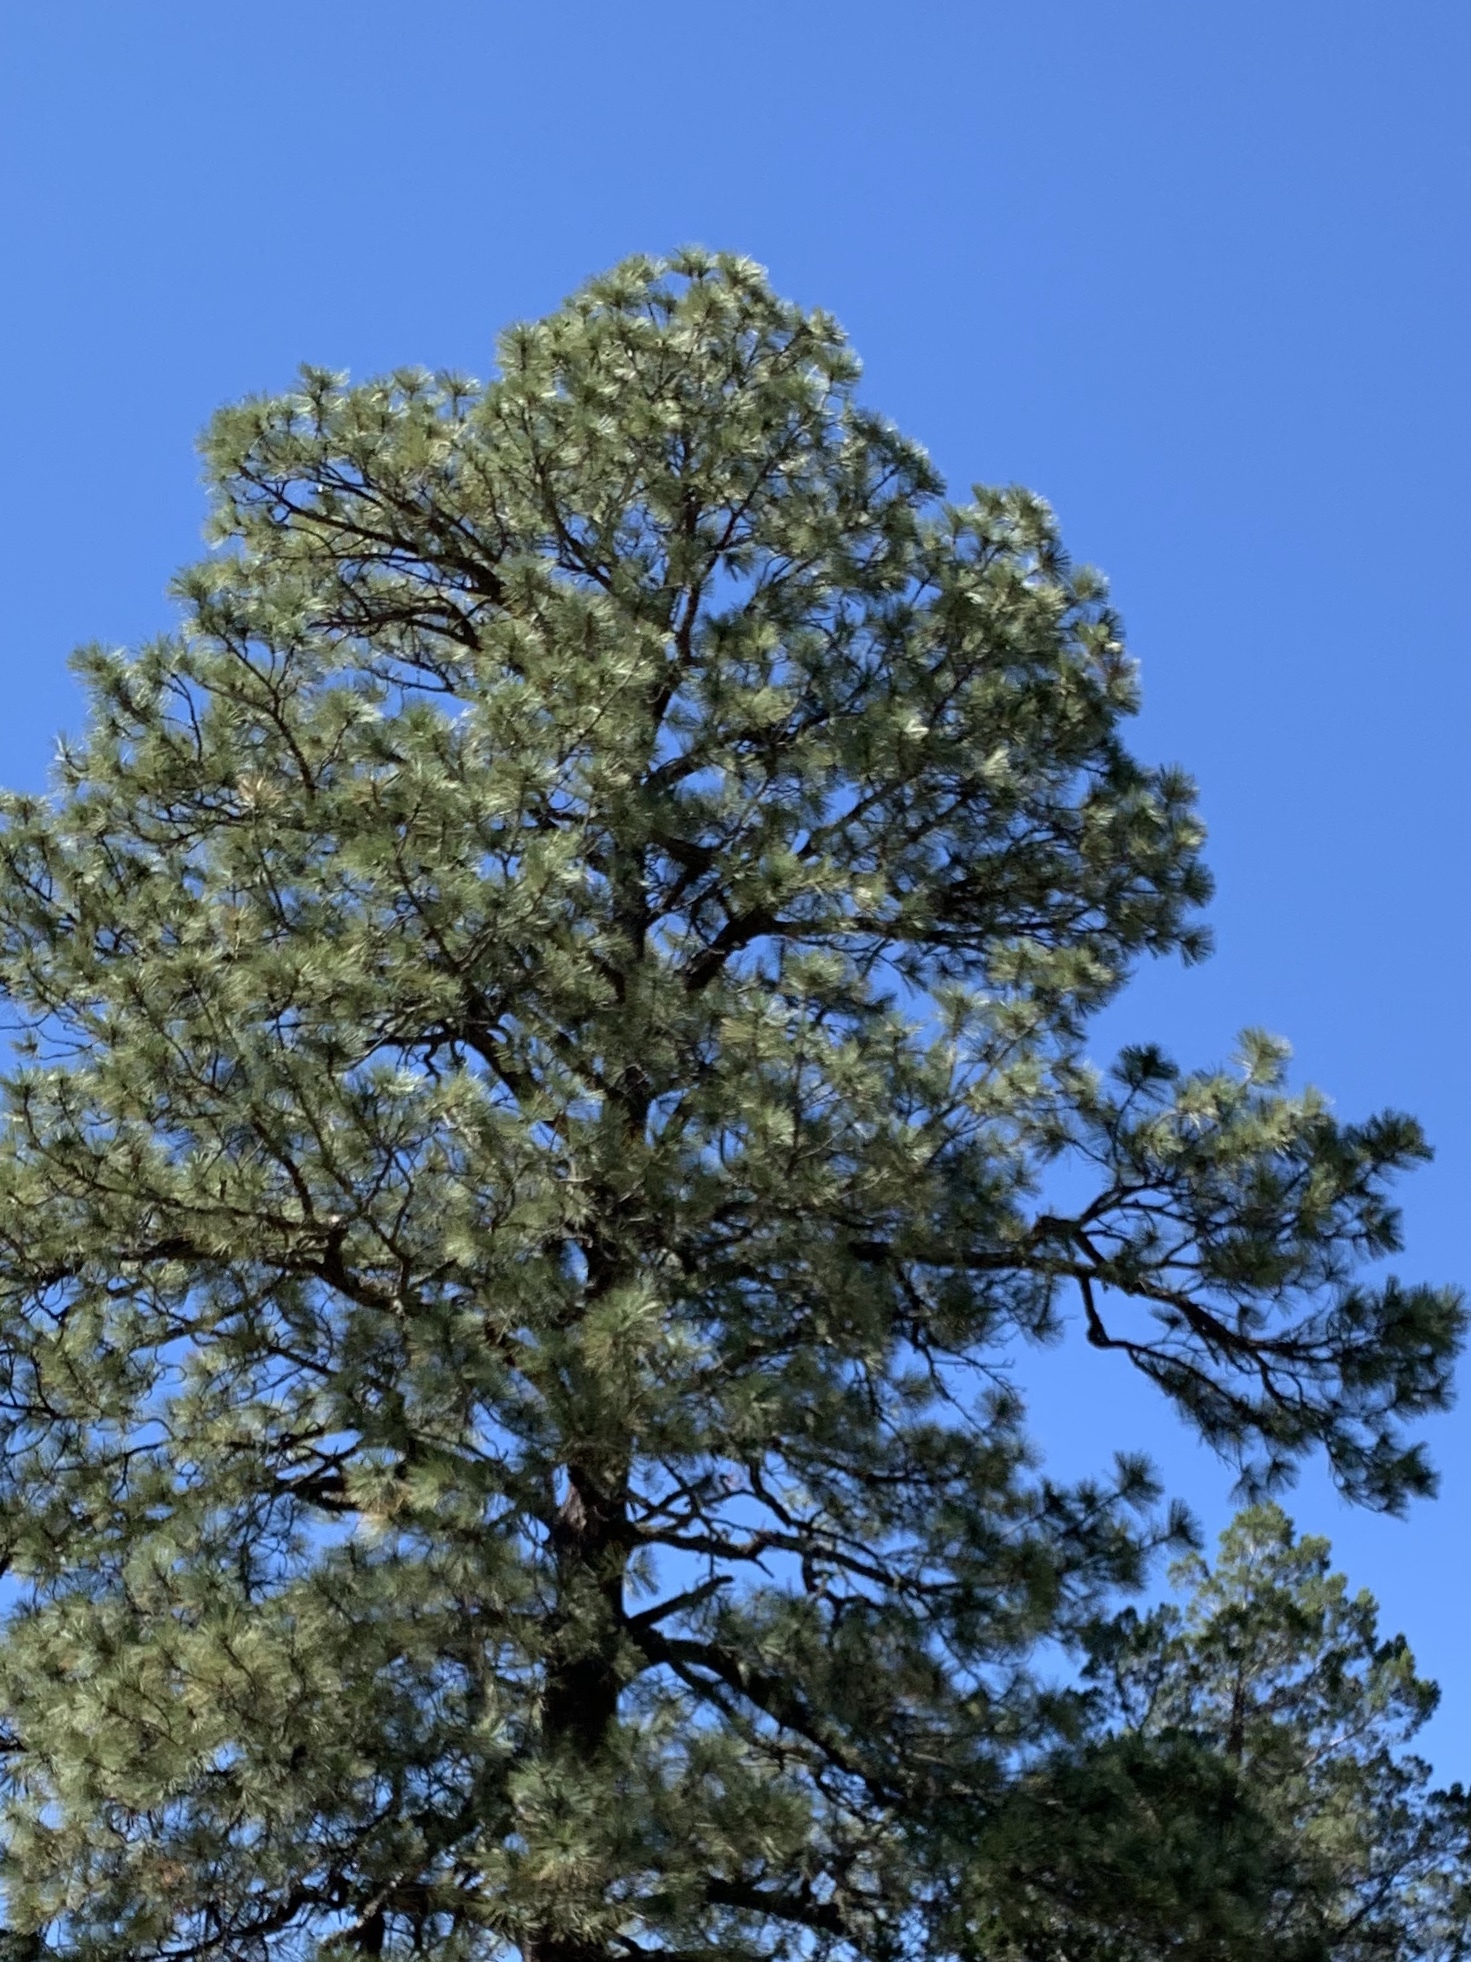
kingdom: Plantae
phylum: Tracheophyta
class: Pinopsida
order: Pinales
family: Pinaceae
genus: Pinus
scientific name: Pinus ponderosa
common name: Western yellow-pine
